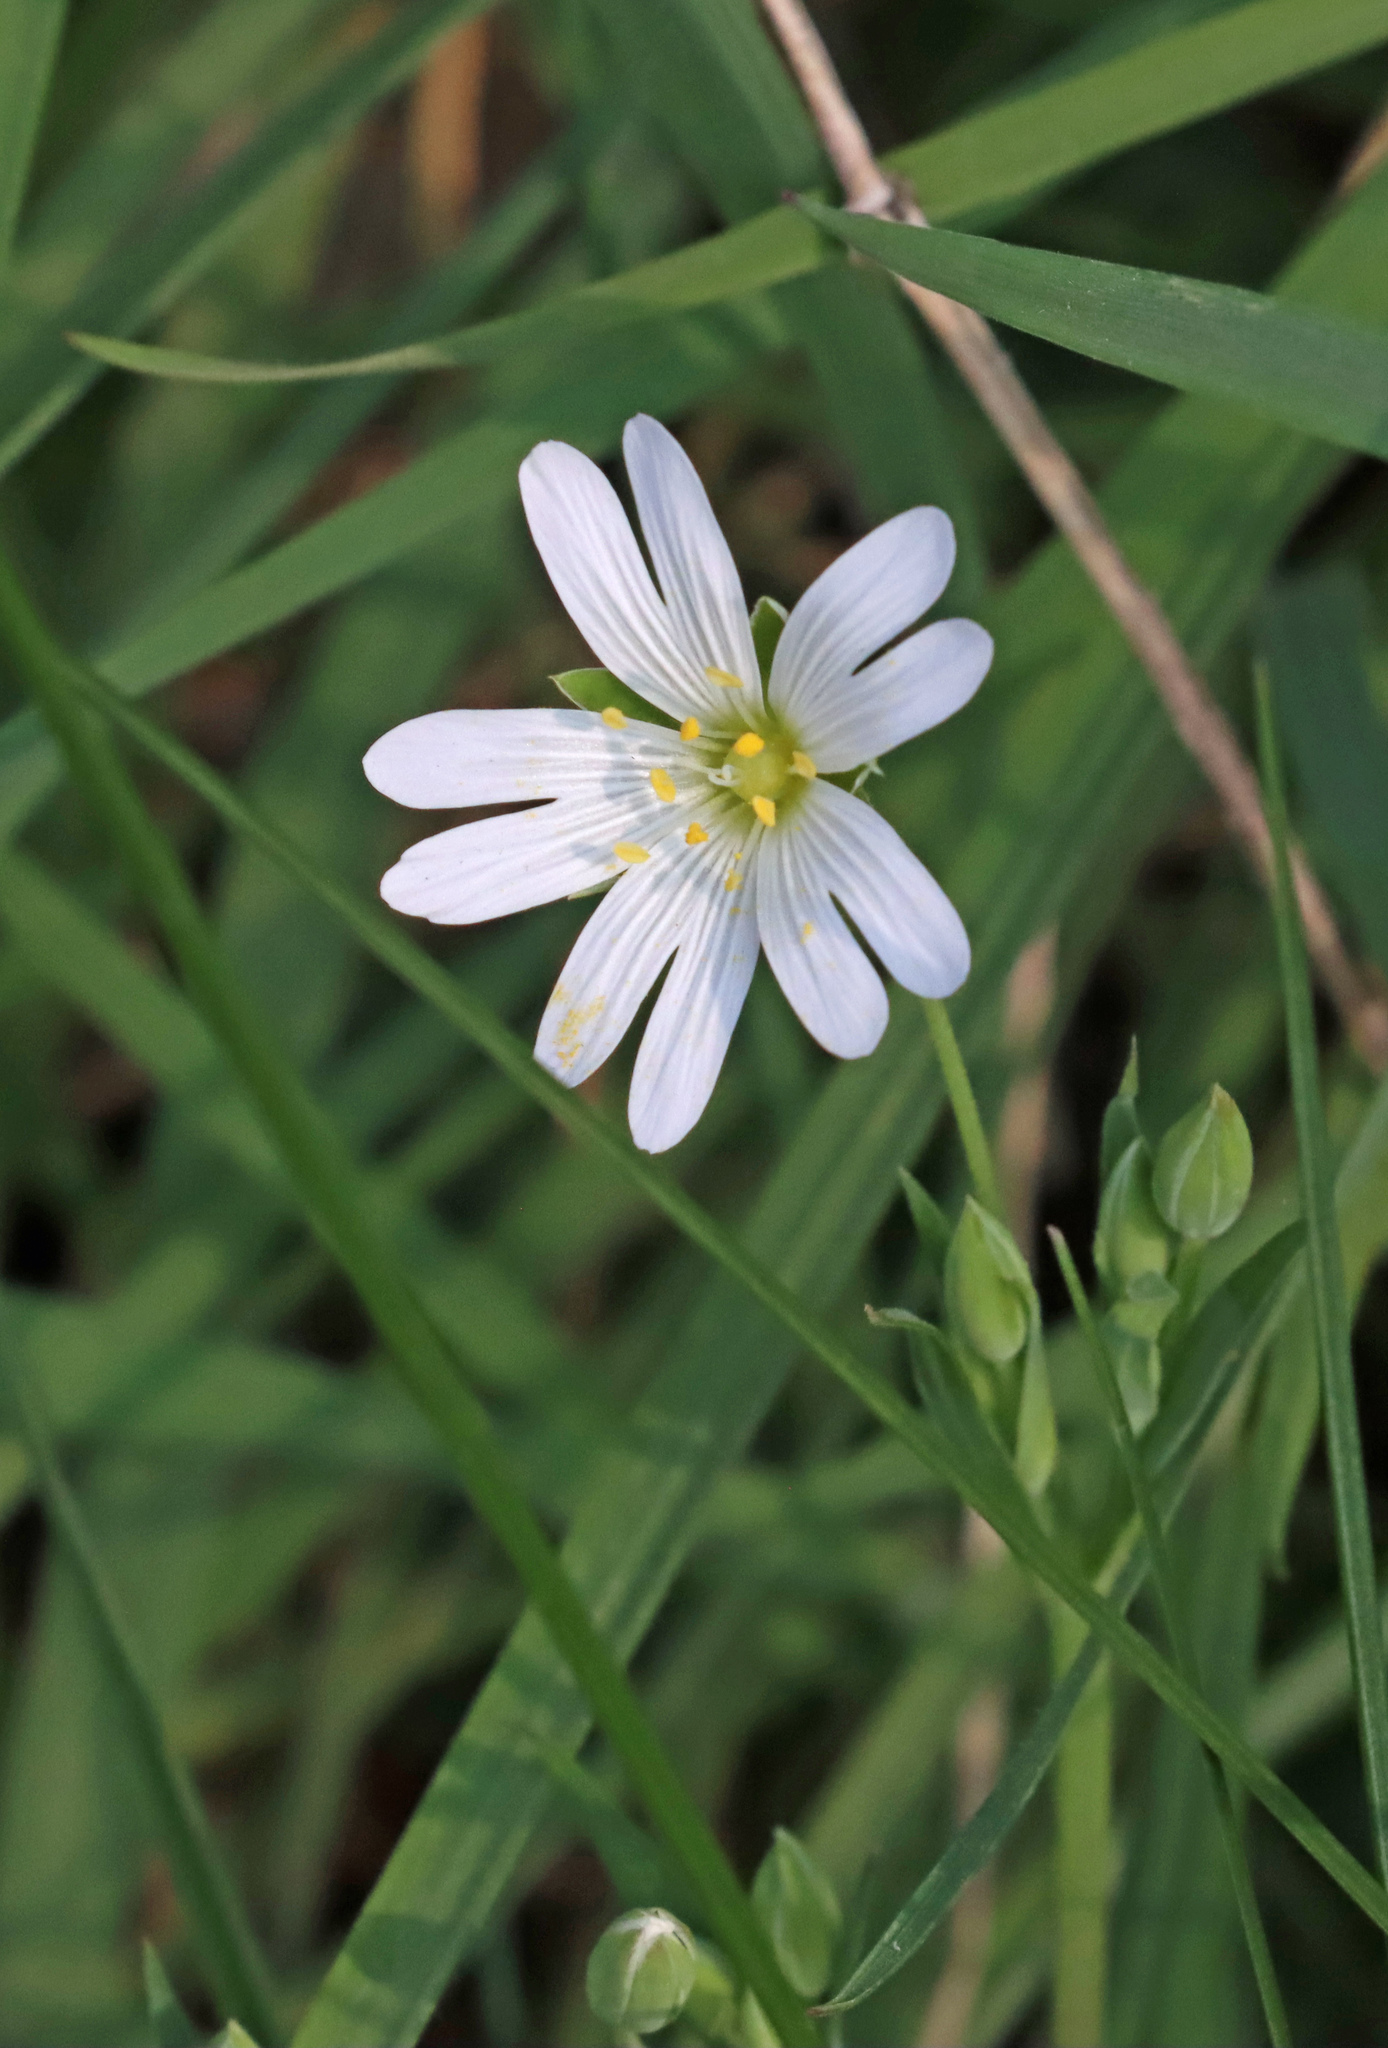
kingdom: Plantae
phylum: Tracheophyta
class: Magnoliopsida
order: Caryophyllales
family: Caryophyllaceae
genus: Rabelera
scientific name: Rabelera holostea
